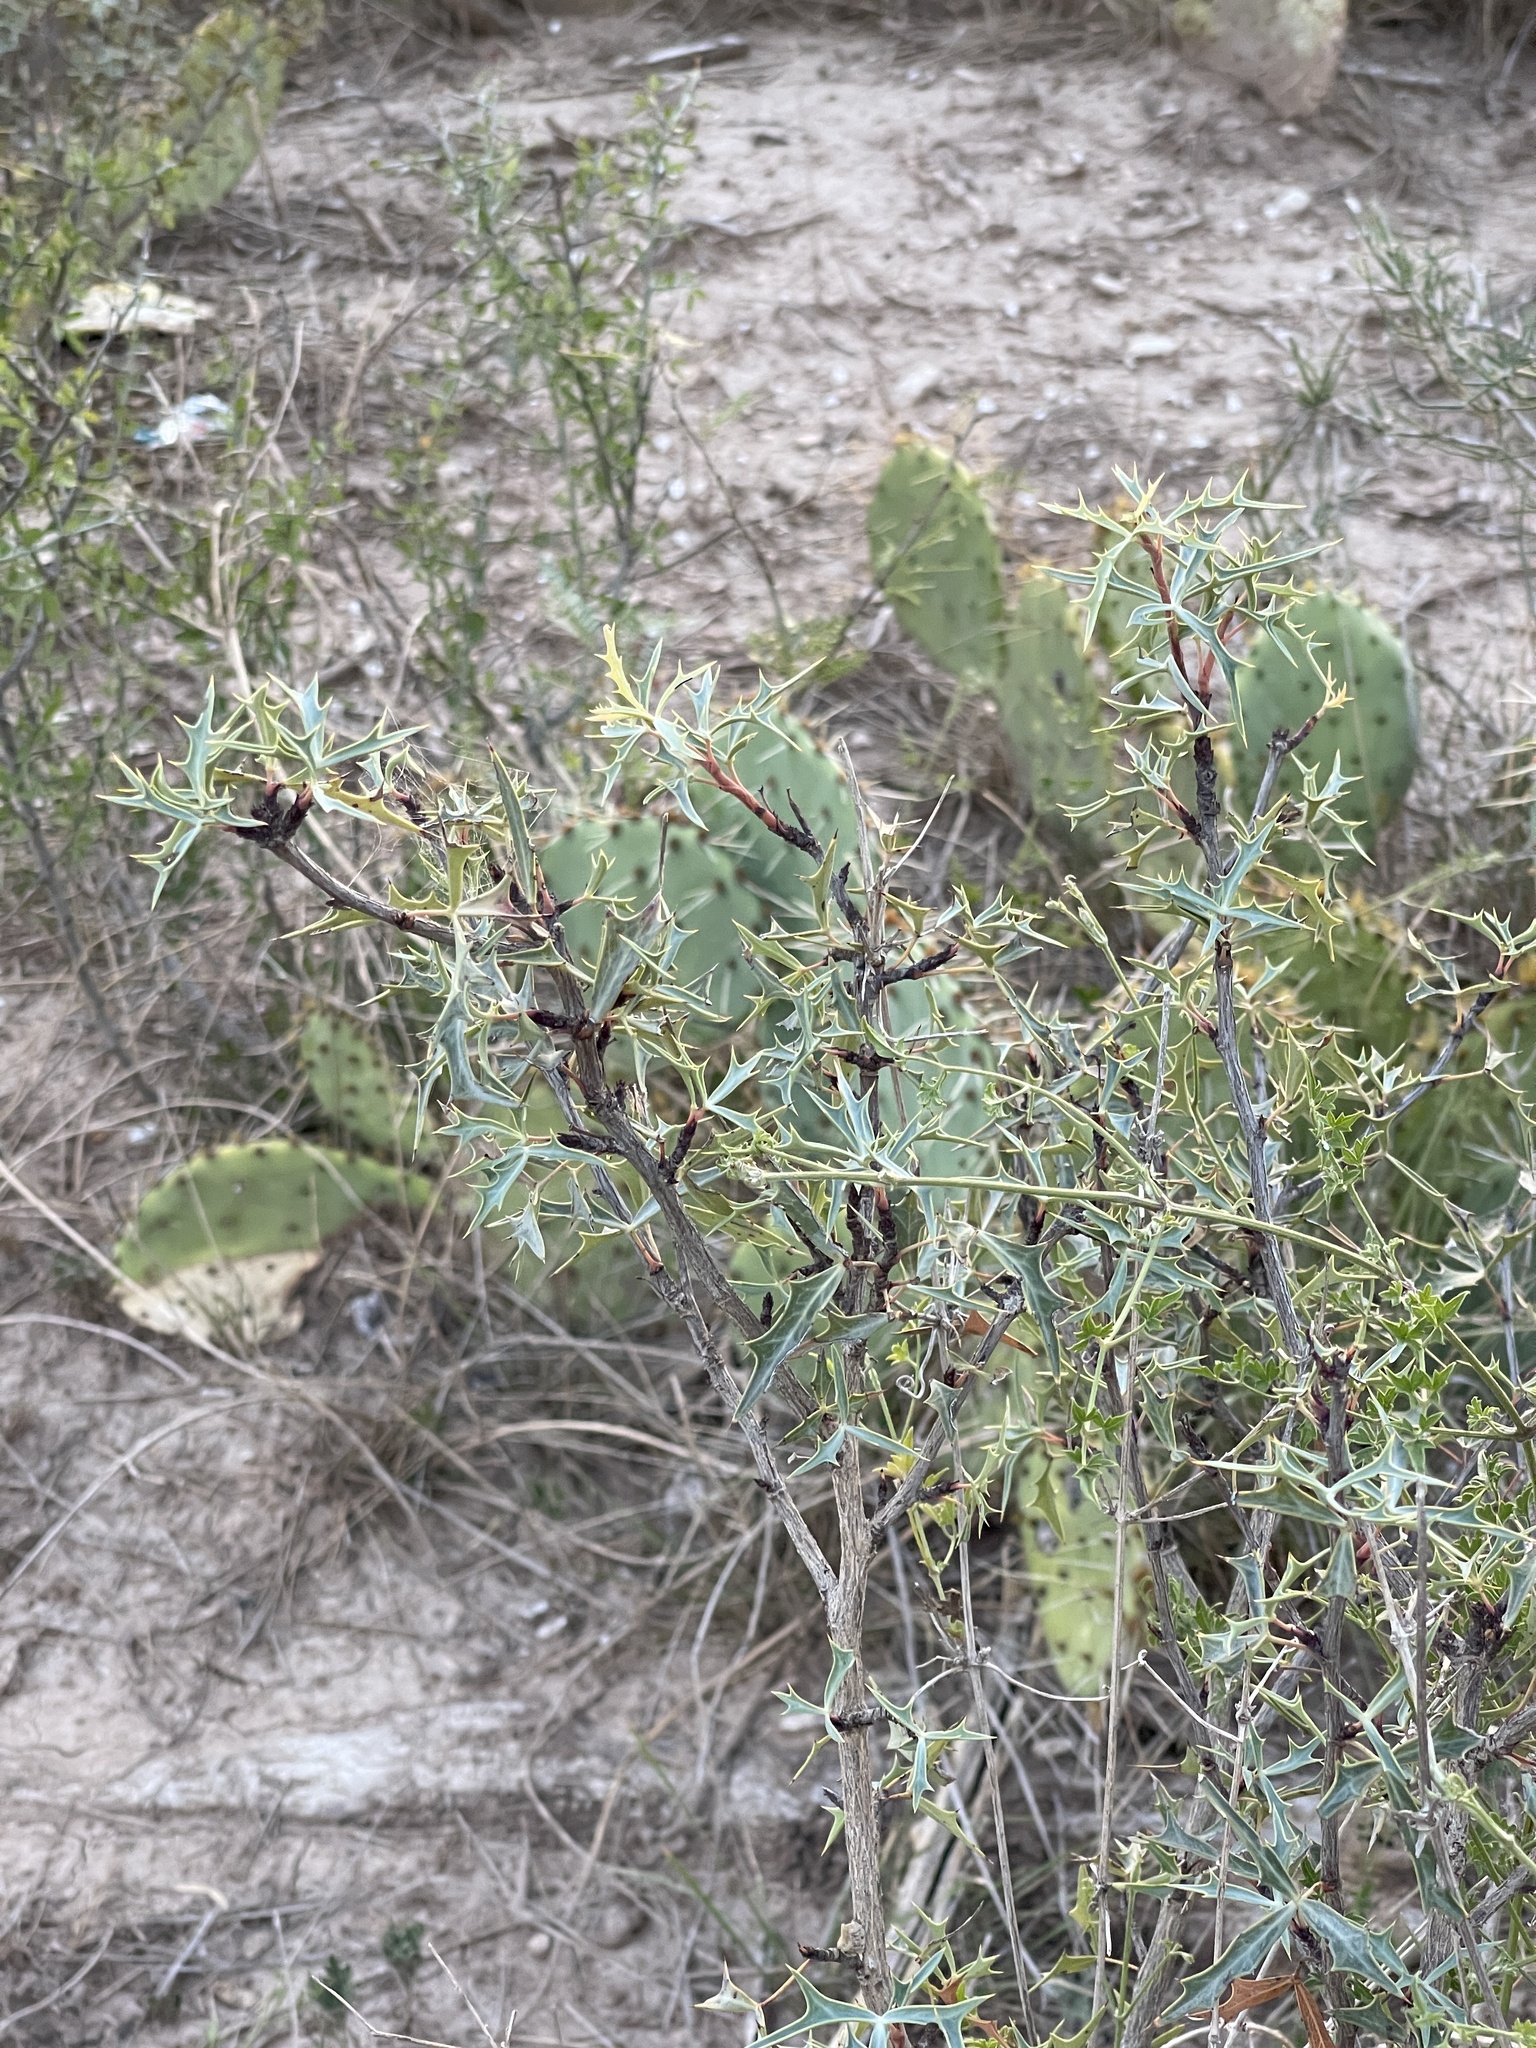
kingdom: Plantae
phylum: Tracheophyta
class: Magnoliopsida
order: Ranunculales
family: Berberidaceae
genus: Alloberberis
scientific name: Alloberberis trifoliolata
